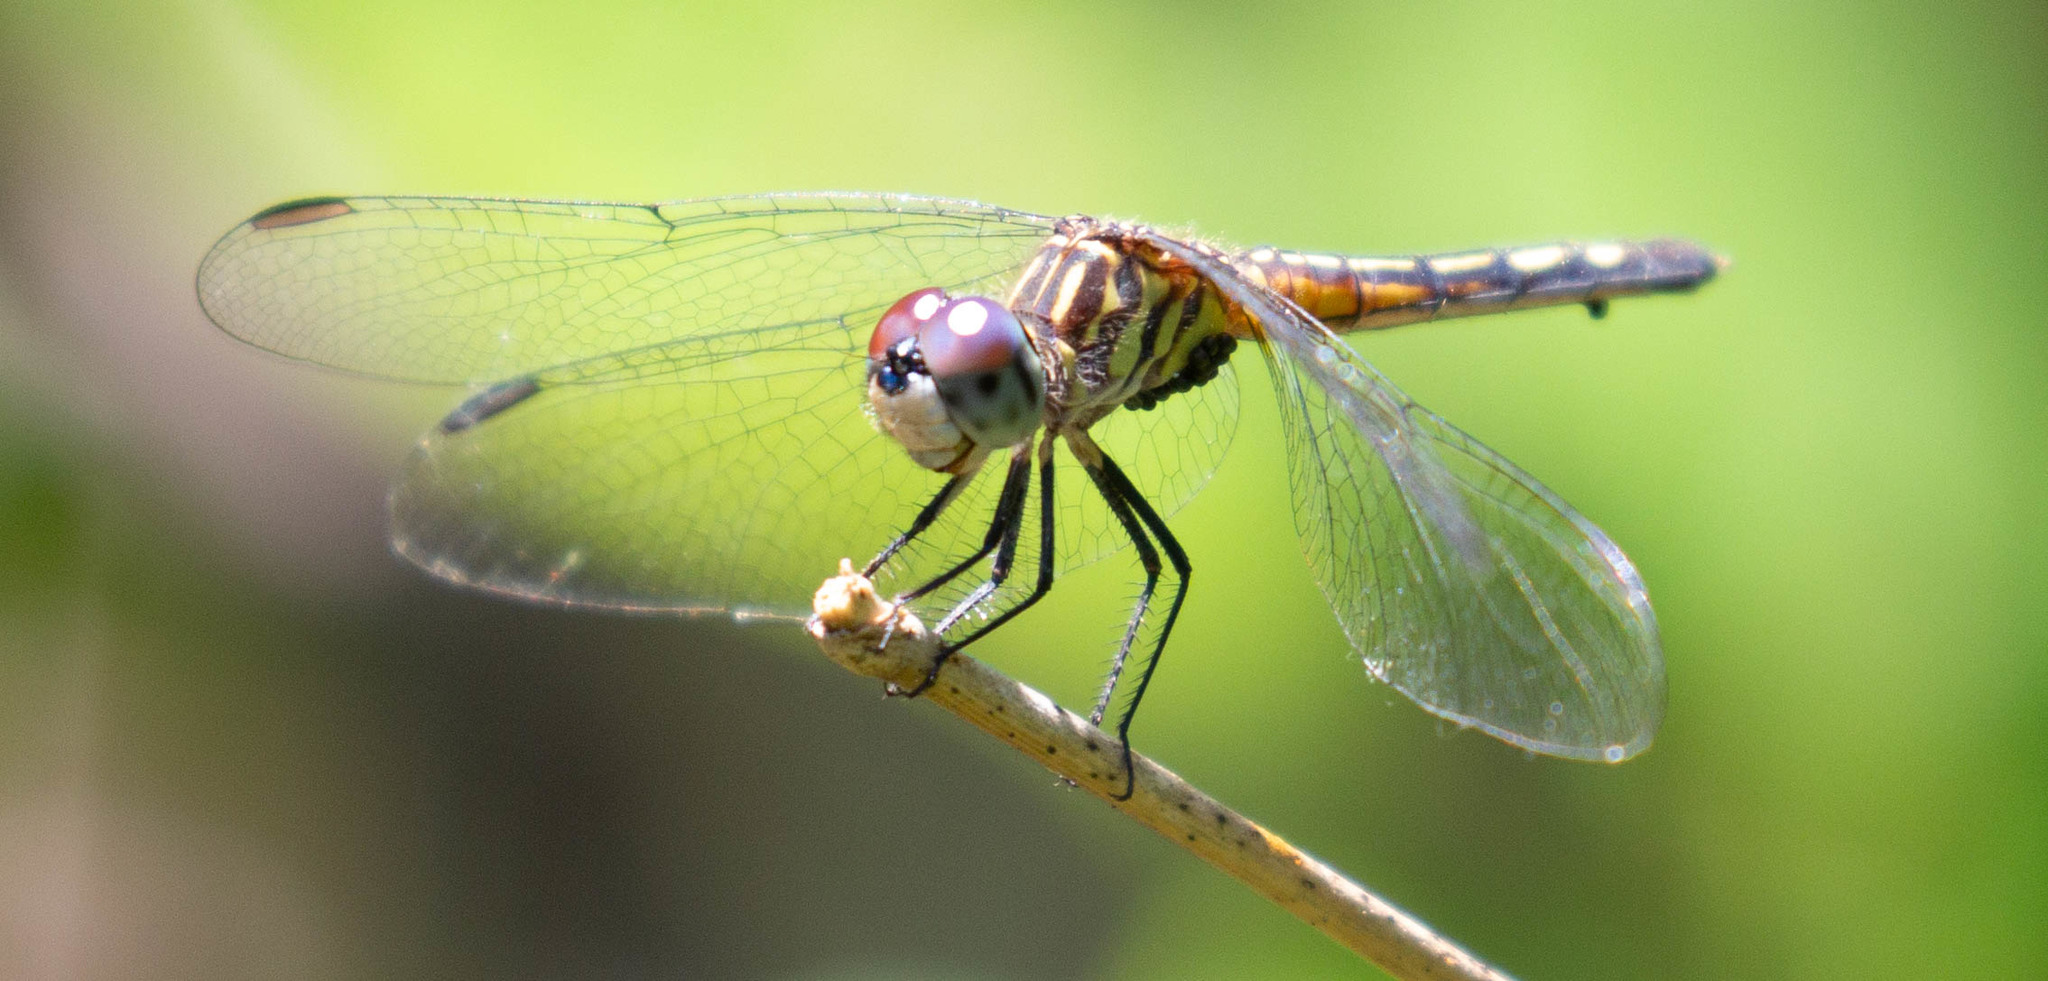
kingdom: Animalia
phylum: Arthropoda
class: Insecta
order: Odonata
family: Libellulidae
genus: Pachydiplax
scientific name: Pachydiplax longipennis
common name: Blue dasher
